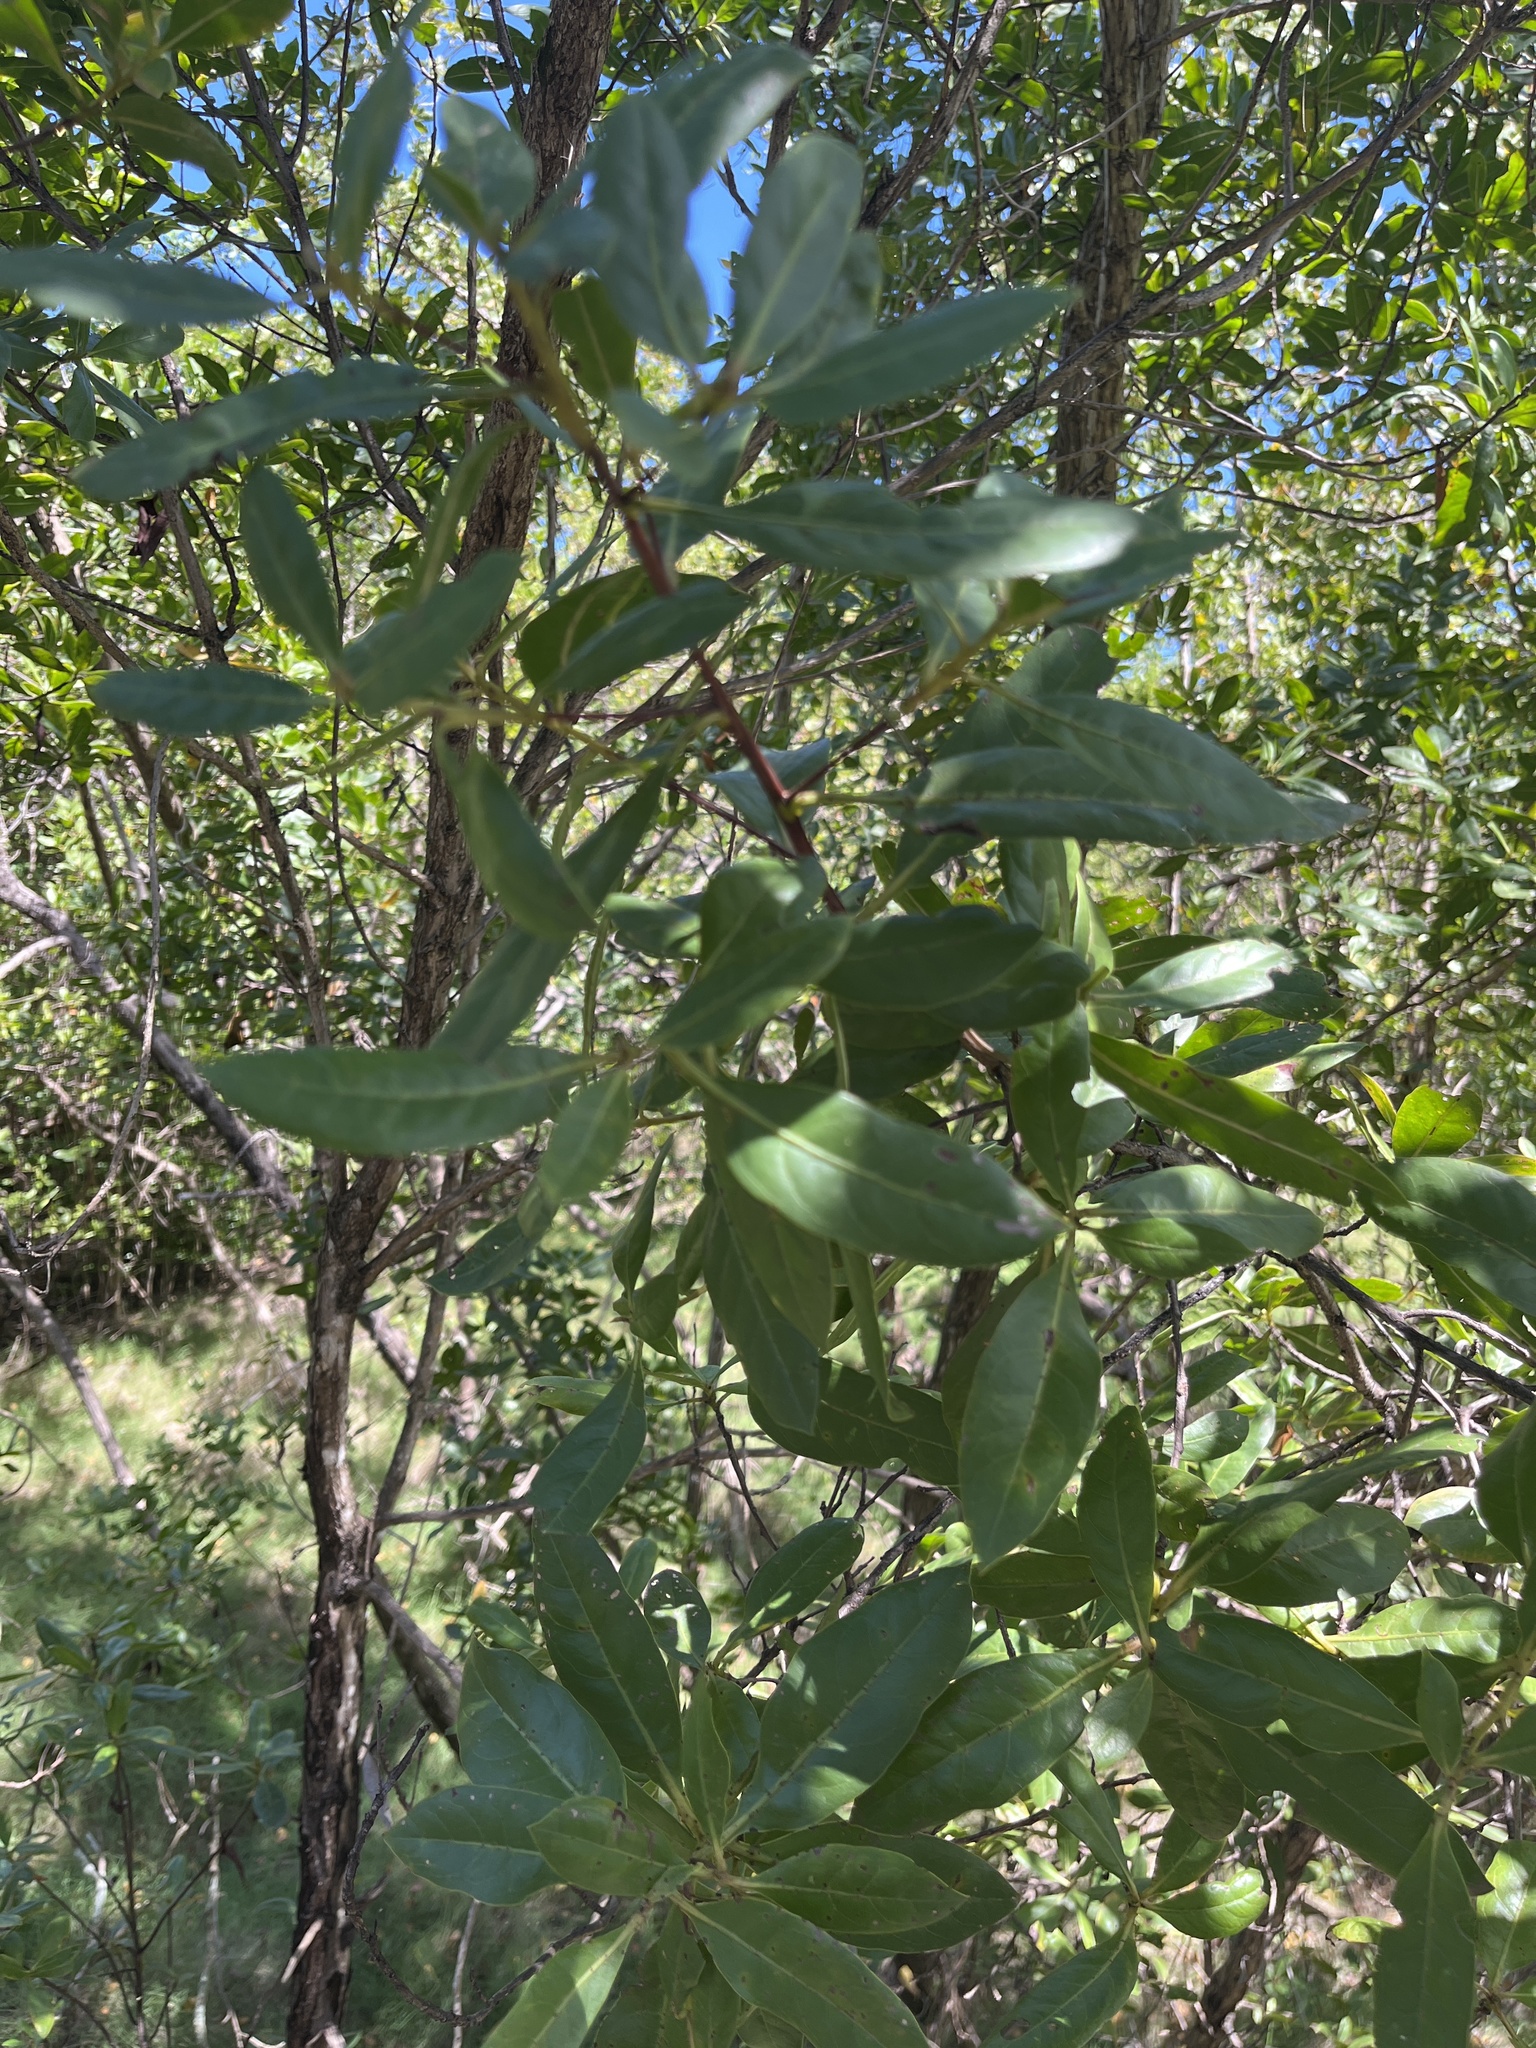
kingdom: Plantae
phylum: Tracheophyta
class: Magnoliopsida
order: Myrtales
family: Combretaceae
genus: Conocarpus
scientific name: Conocarpus erectus
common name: Button mangrove
